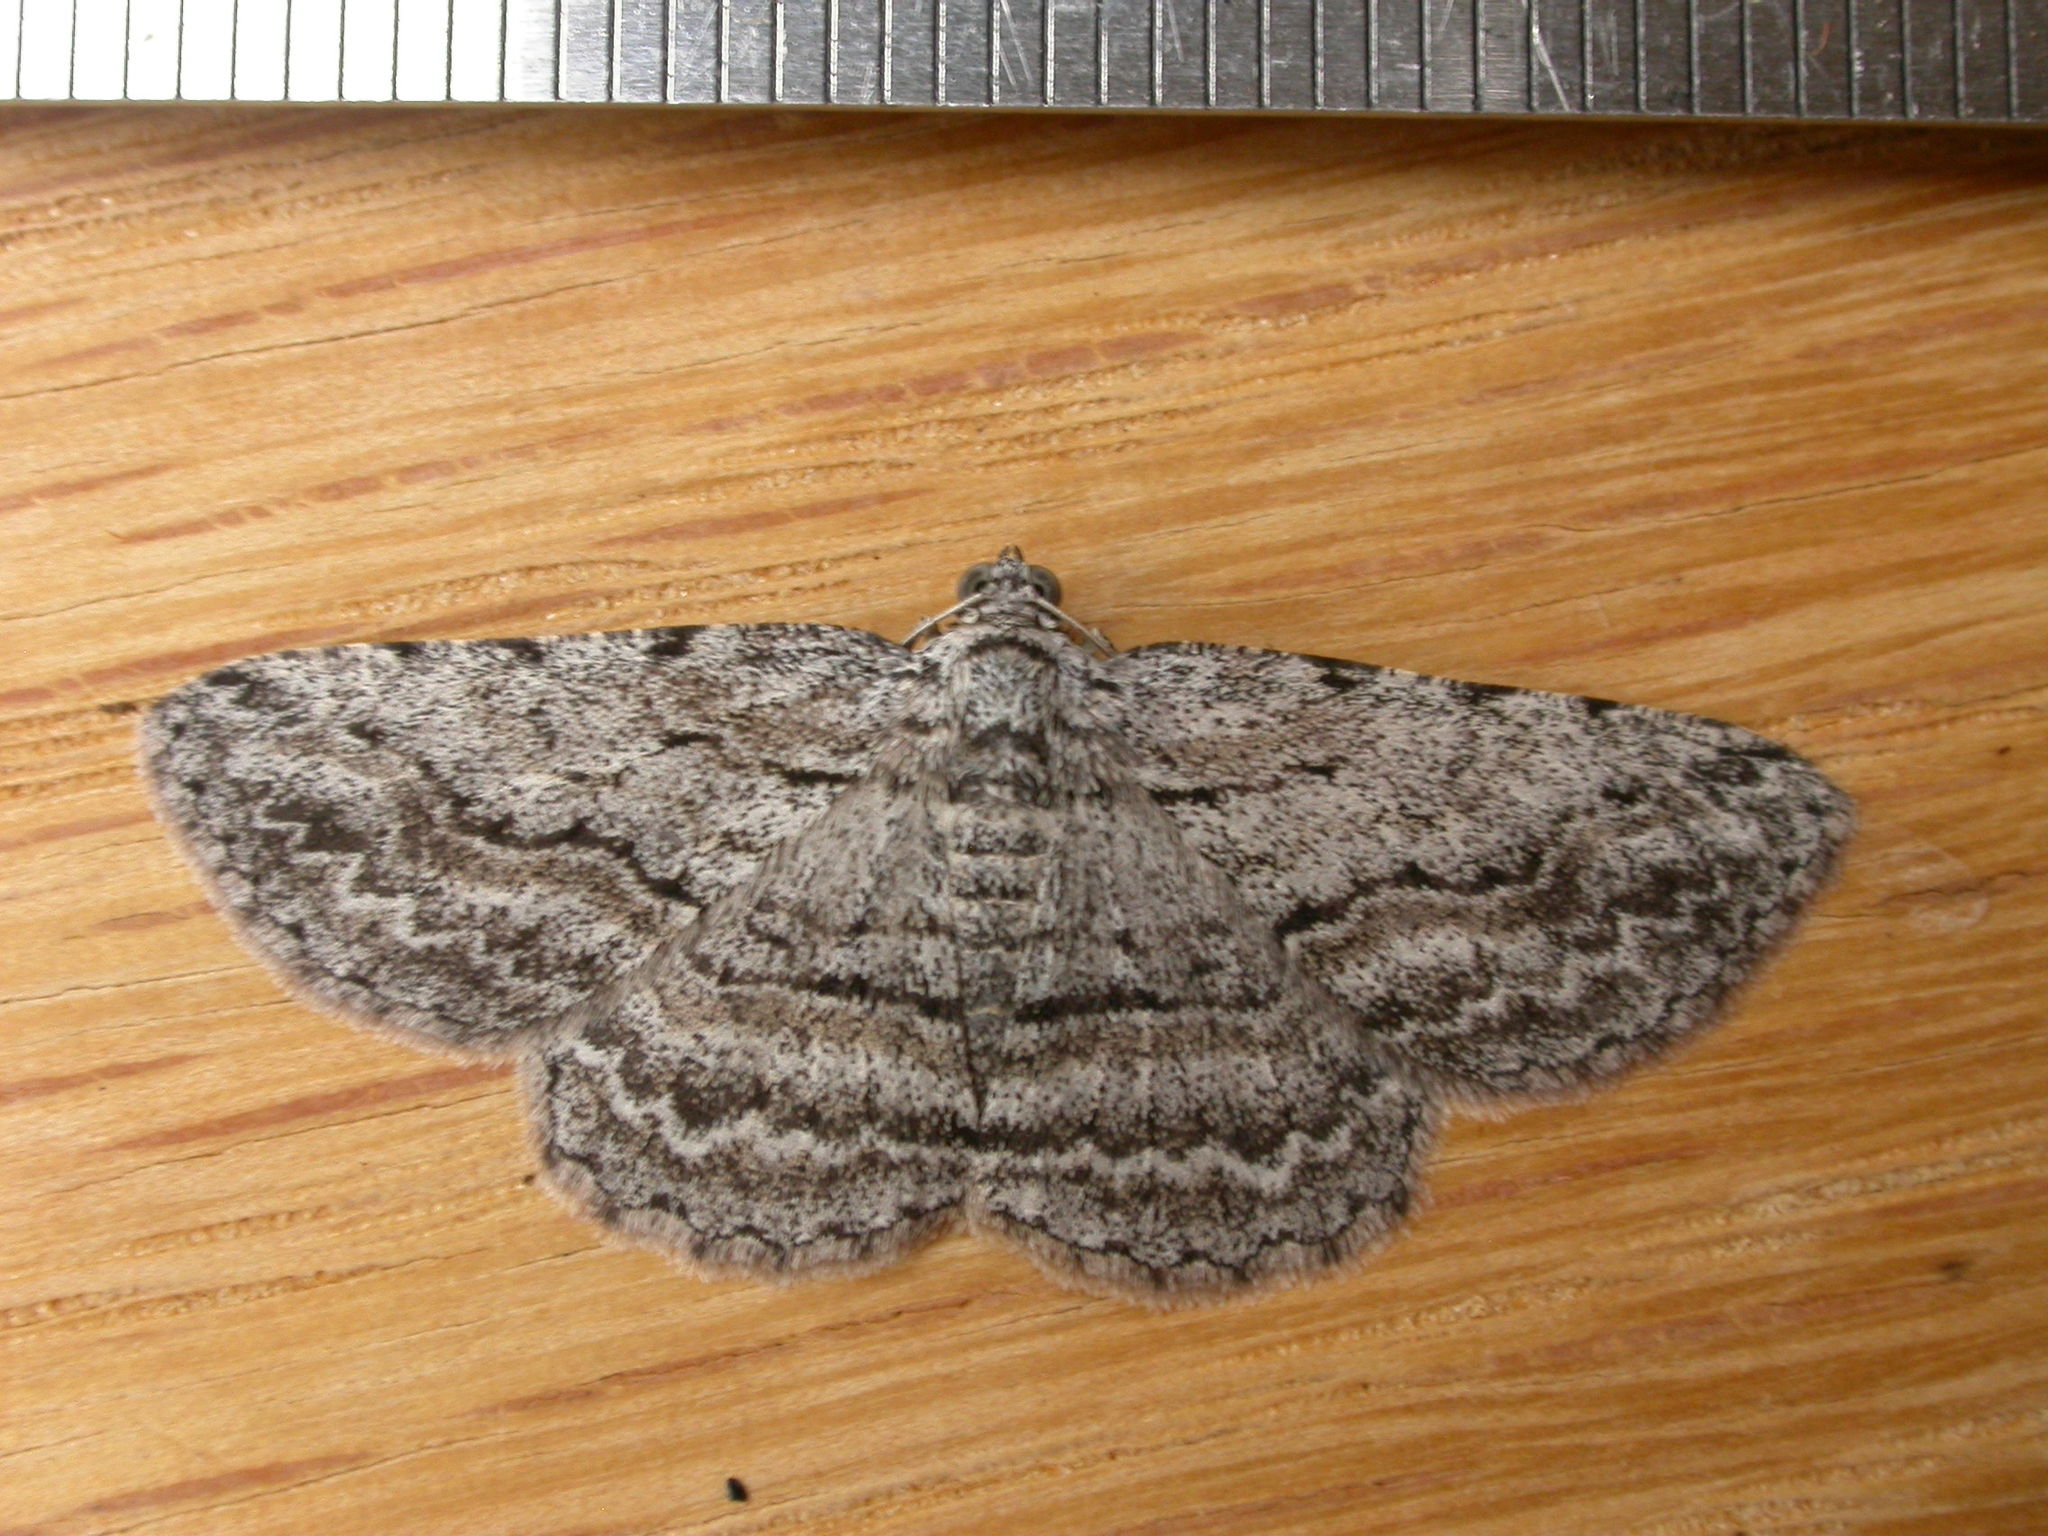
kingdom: Animalia
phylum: Arthropoda
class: Insecta
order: Lepidoptera
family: Geometridae
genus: Psilosticha
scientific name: Psilosticha attacta
